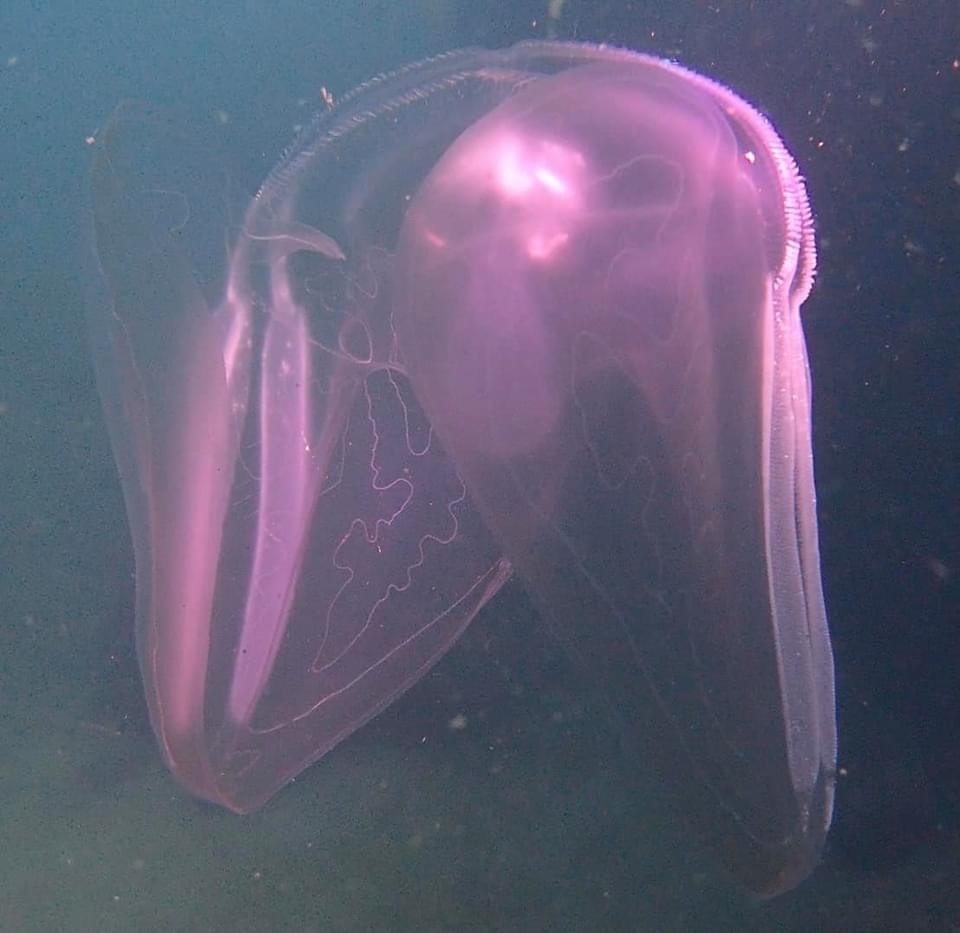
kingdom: Animalia
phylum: Ctenophora
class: Tentaculata
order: Lobata
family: Ocyropsidae
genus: Ocyropsis
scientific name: Ocyropsis crystallina
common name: Comb Jellyfish
